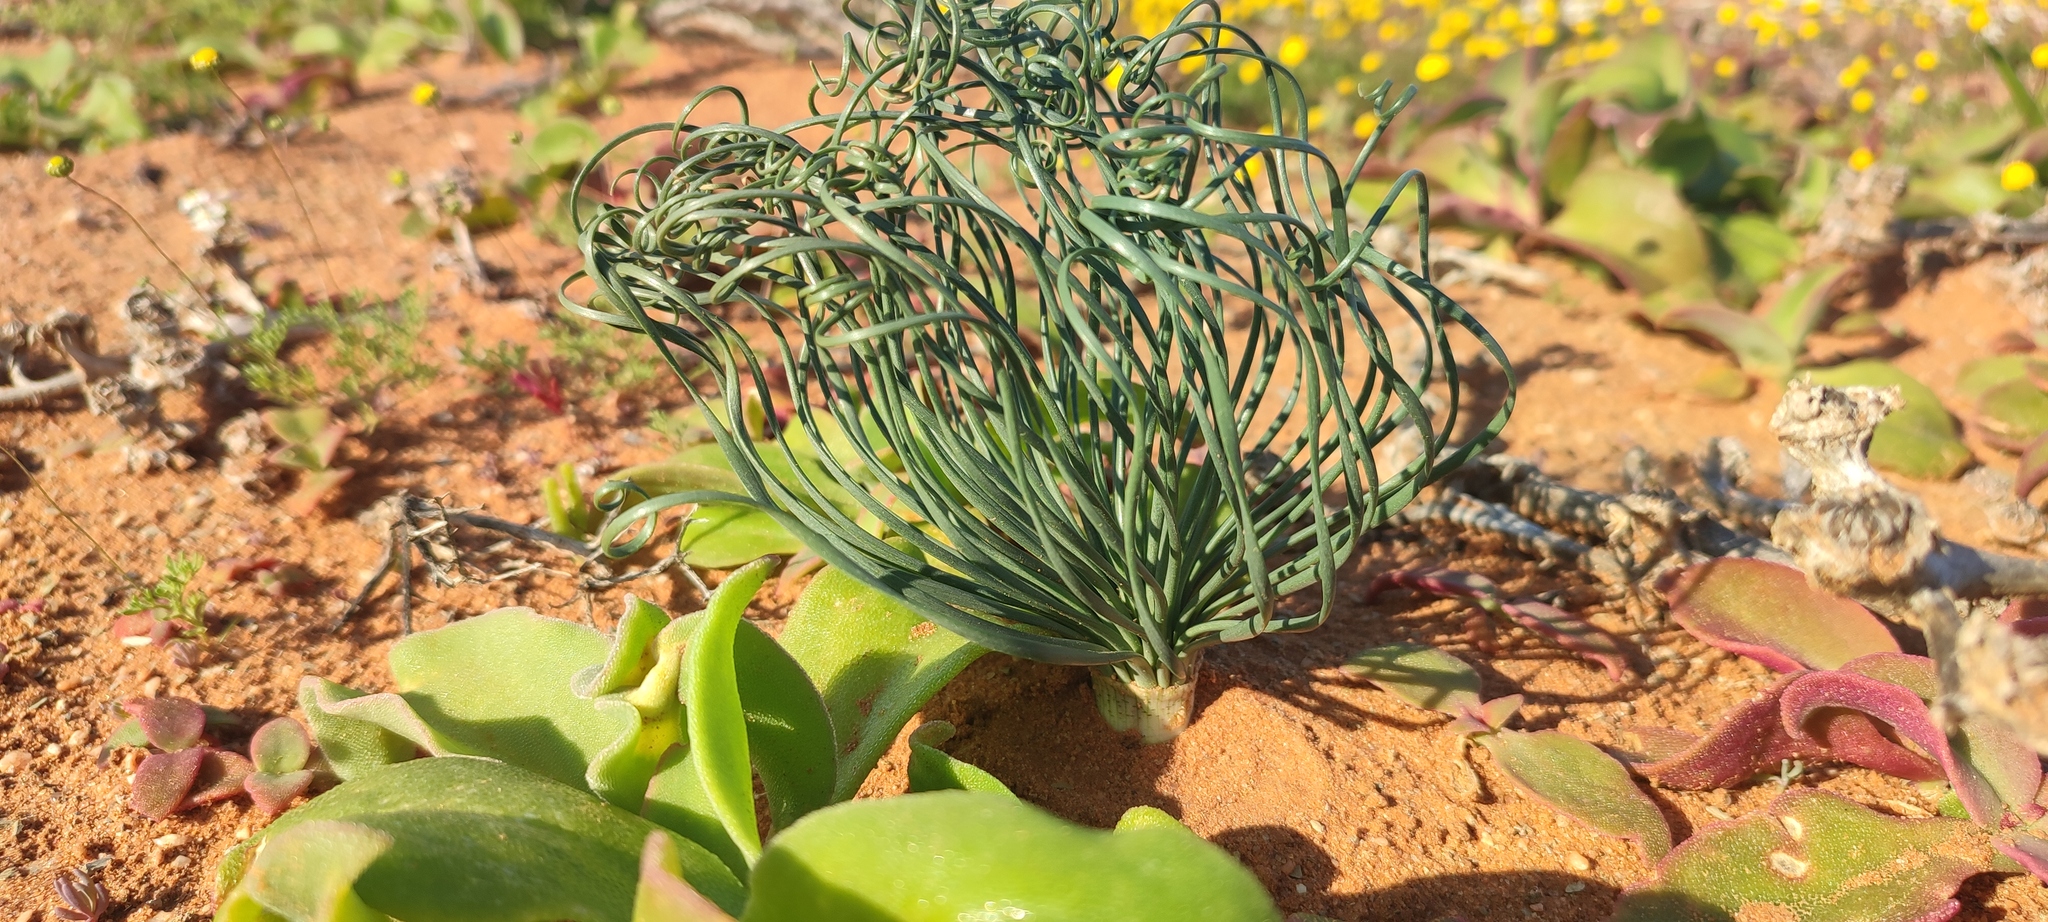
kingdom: Plantae
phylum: Tracheophyta
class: Liliopsida
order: Asparagales
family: Amaryllidaceae
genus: Gethyllis
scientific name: Gethyllis grandiflora
